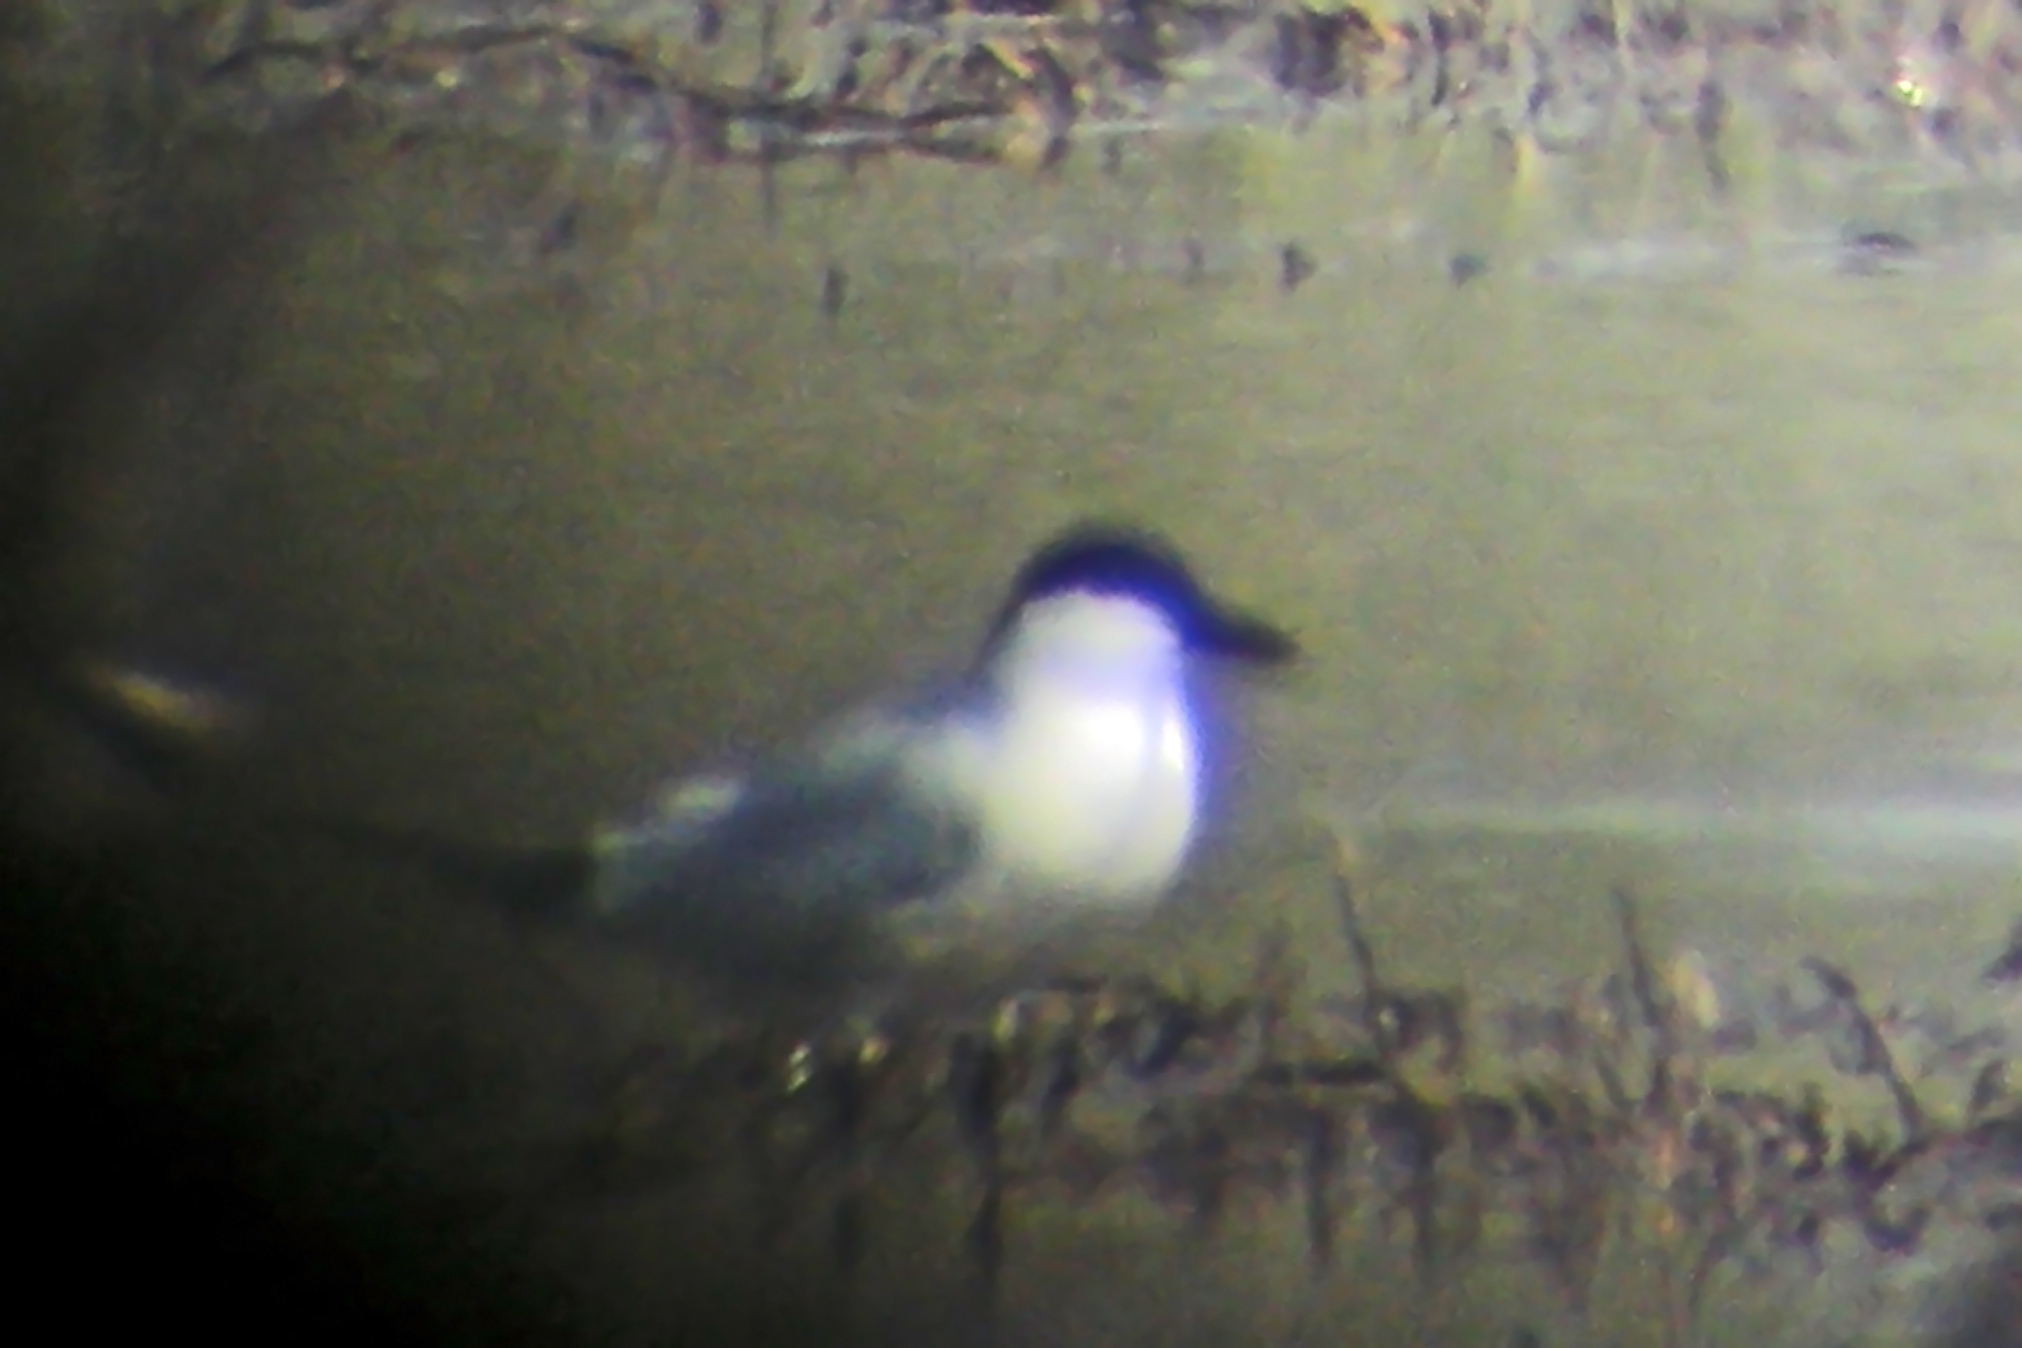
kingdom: Animalia
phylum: Chordata
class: Aves
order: Charadriiformes
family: Laridae
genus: Gelochelidon
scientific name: Gelochelidon nilotica
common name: Gull-billed tern
